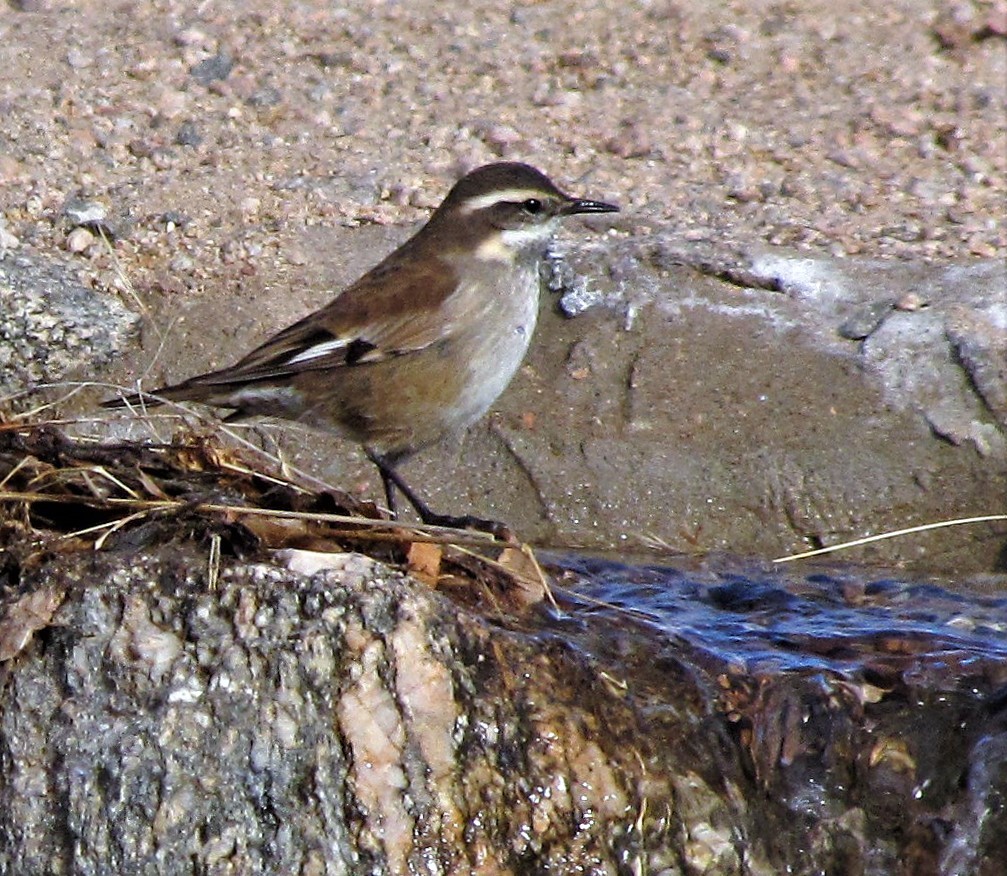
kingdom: Animalia
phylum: Chordata
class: Aves
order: Passeriformes
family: Furnariidae
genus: Cinclodes
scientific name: Cinclodes fuscus
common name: Buff-winged cinclodes
